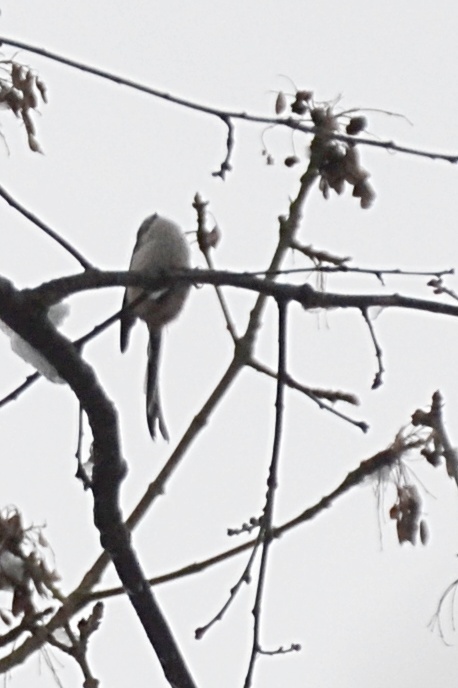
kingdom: Animalia
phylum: Chordata
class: Aves
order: Passeriformes
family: Aegithalidae
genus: Aegithalos
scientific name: Aegithalos caudatus
